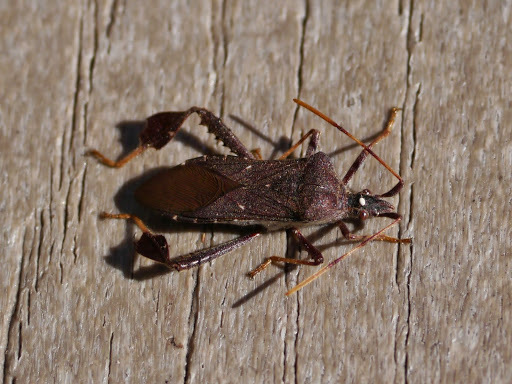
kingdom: Animalia
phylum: Arthropoda
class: Insecta
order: Hemiptera
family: Coreidae
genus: Leptoglossus
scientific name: Leptoglossus oppositus
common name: Northern leaf-footed bug
